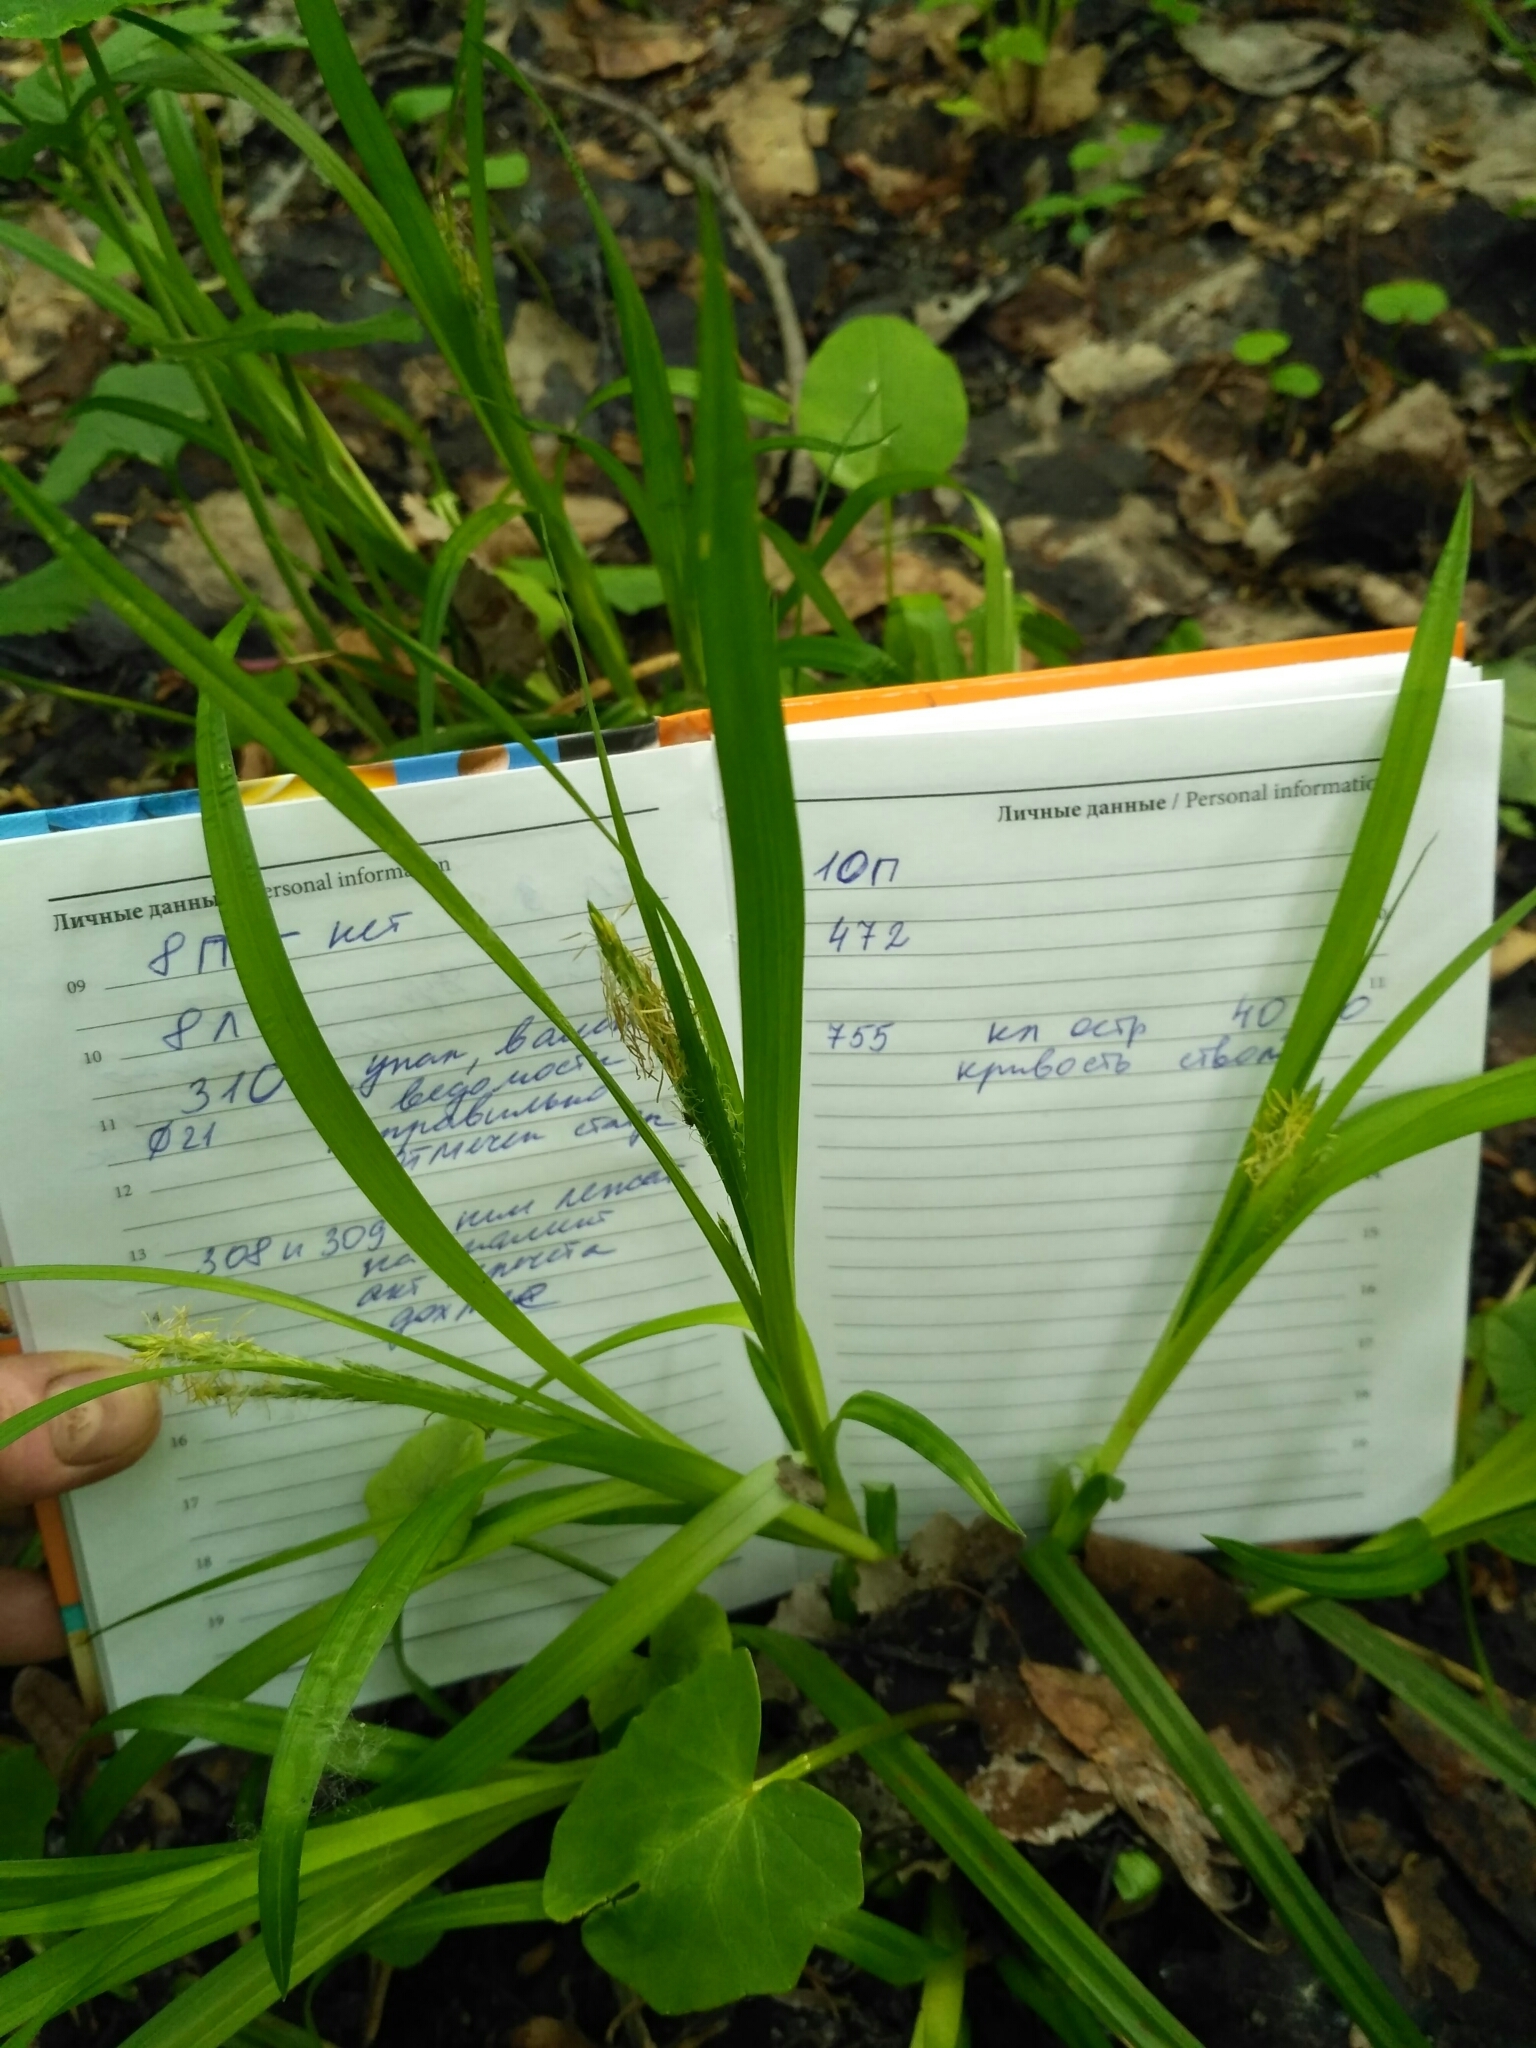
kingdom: Plantae
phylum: Tracheophyta
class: Liliopsida
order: Poales
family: Cyperaceae
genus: Carex
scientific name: Carex sylvatica
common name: Wood-sedge
